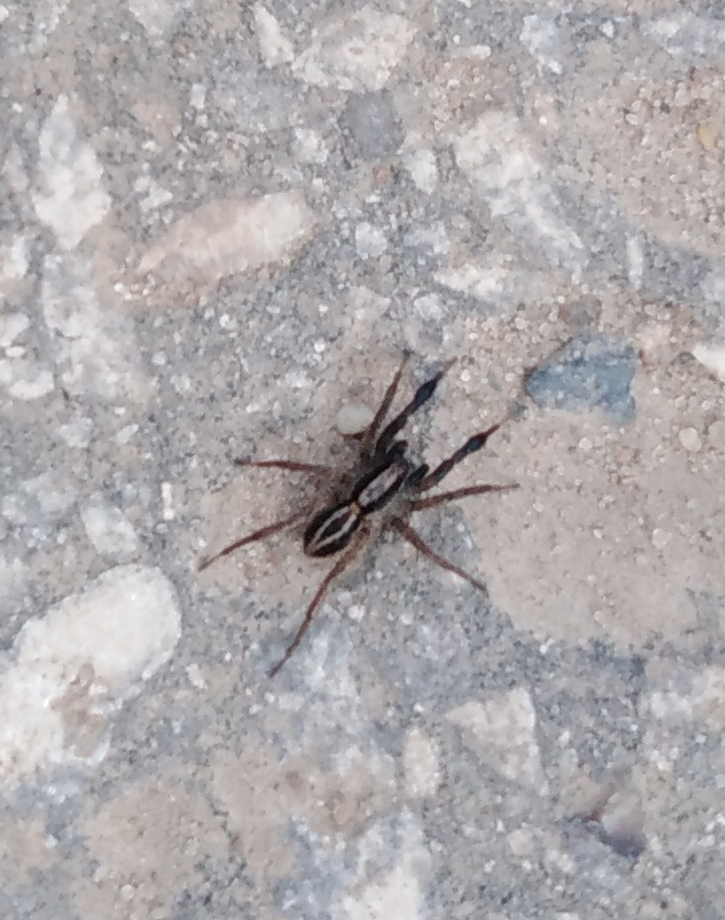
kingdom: Animalia
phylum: Arthropoda
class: Arachnida
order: Araneae
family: Lycosidae
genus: Alopecosa
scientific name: Alopecosa cuneata
